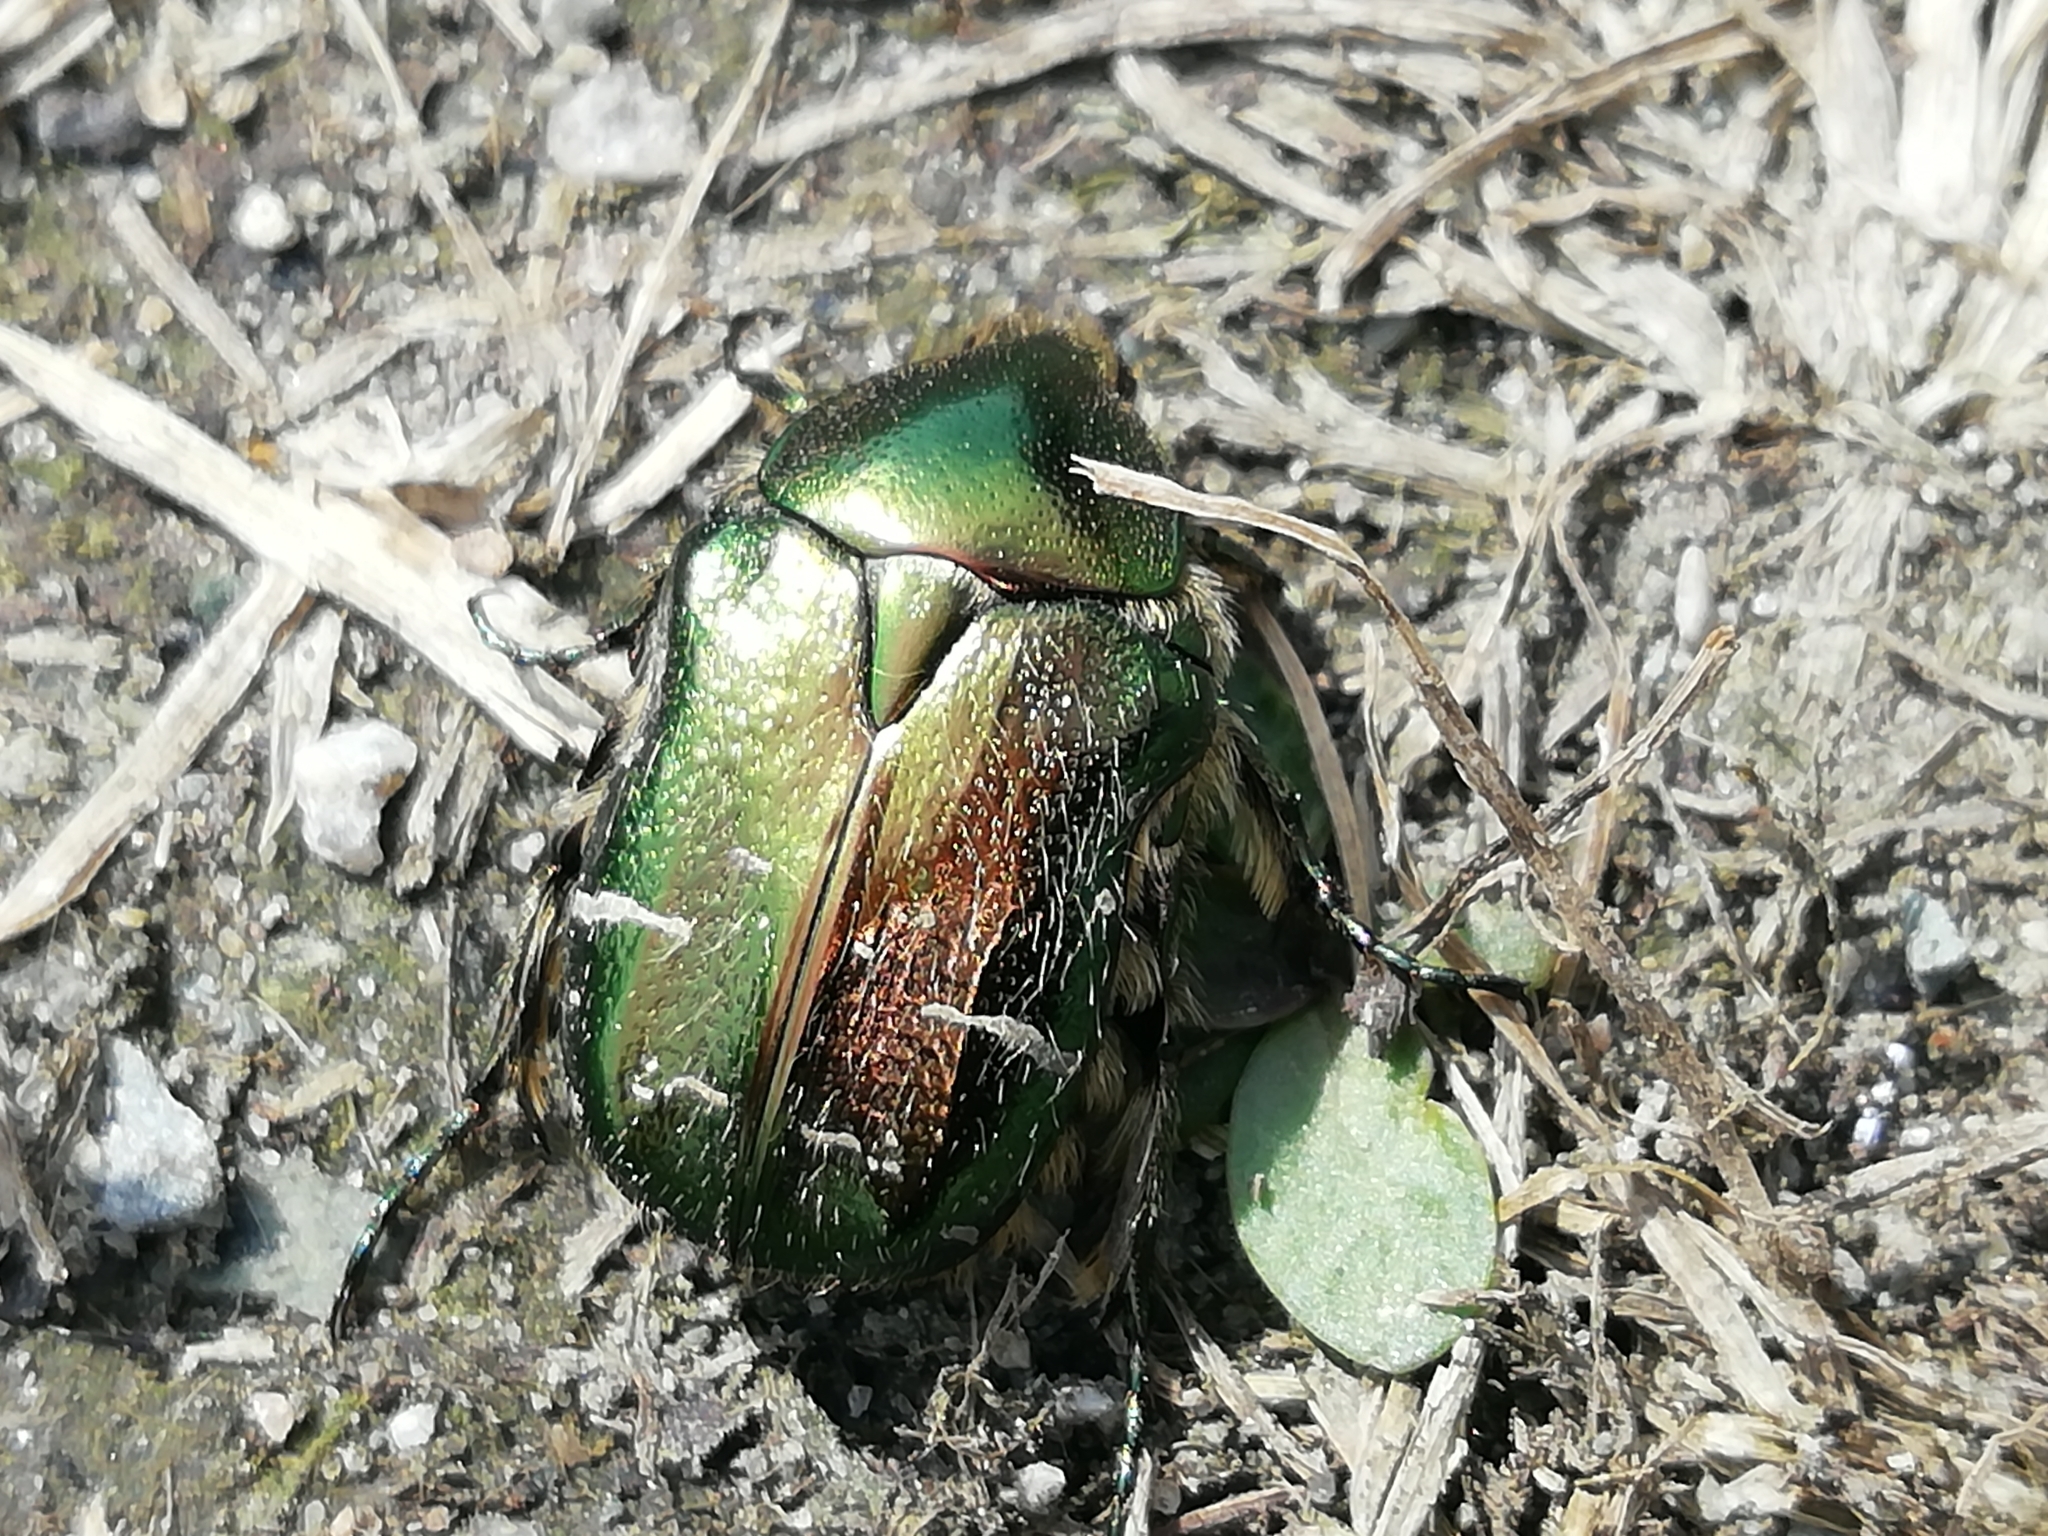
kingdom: Animalia
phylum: Arthropoda
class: Insecta
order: Coleoptera
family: Scarabaeidae
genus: Cetonia
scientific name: Cetonia aurata
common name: Rose chafer
